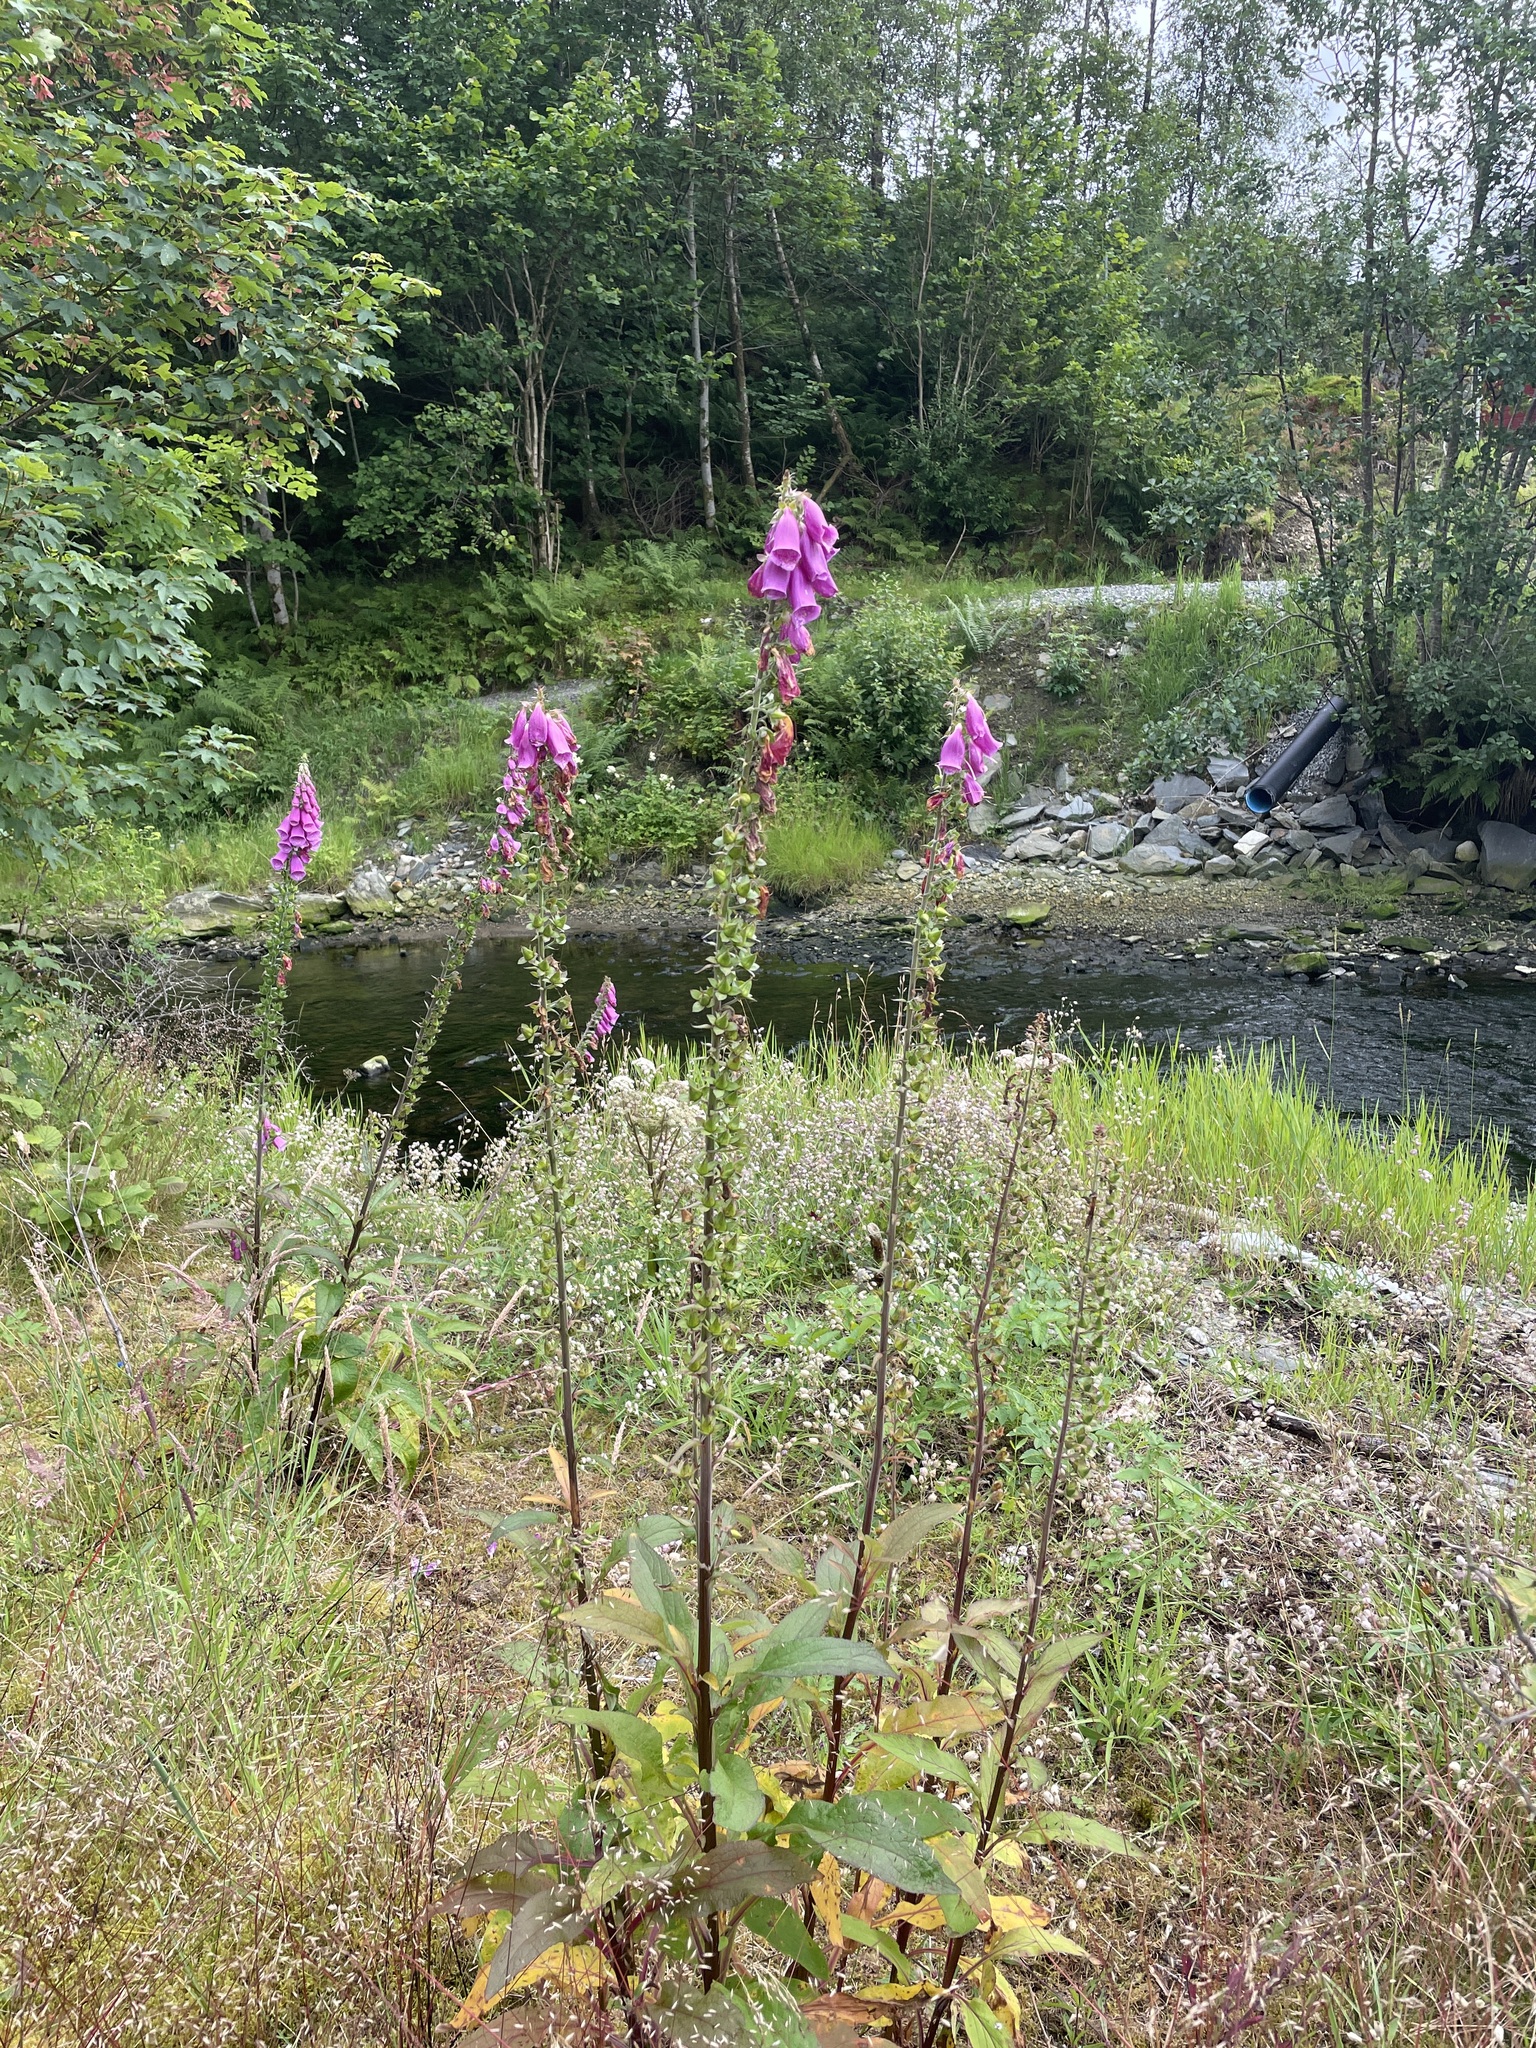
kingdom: Plantae
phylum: Tracheophyta
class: Magnoliopsida
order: Lamiales
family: Plantaginaceae
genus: Digitalis
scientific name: Digitalis purpurea
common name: Foxglove
